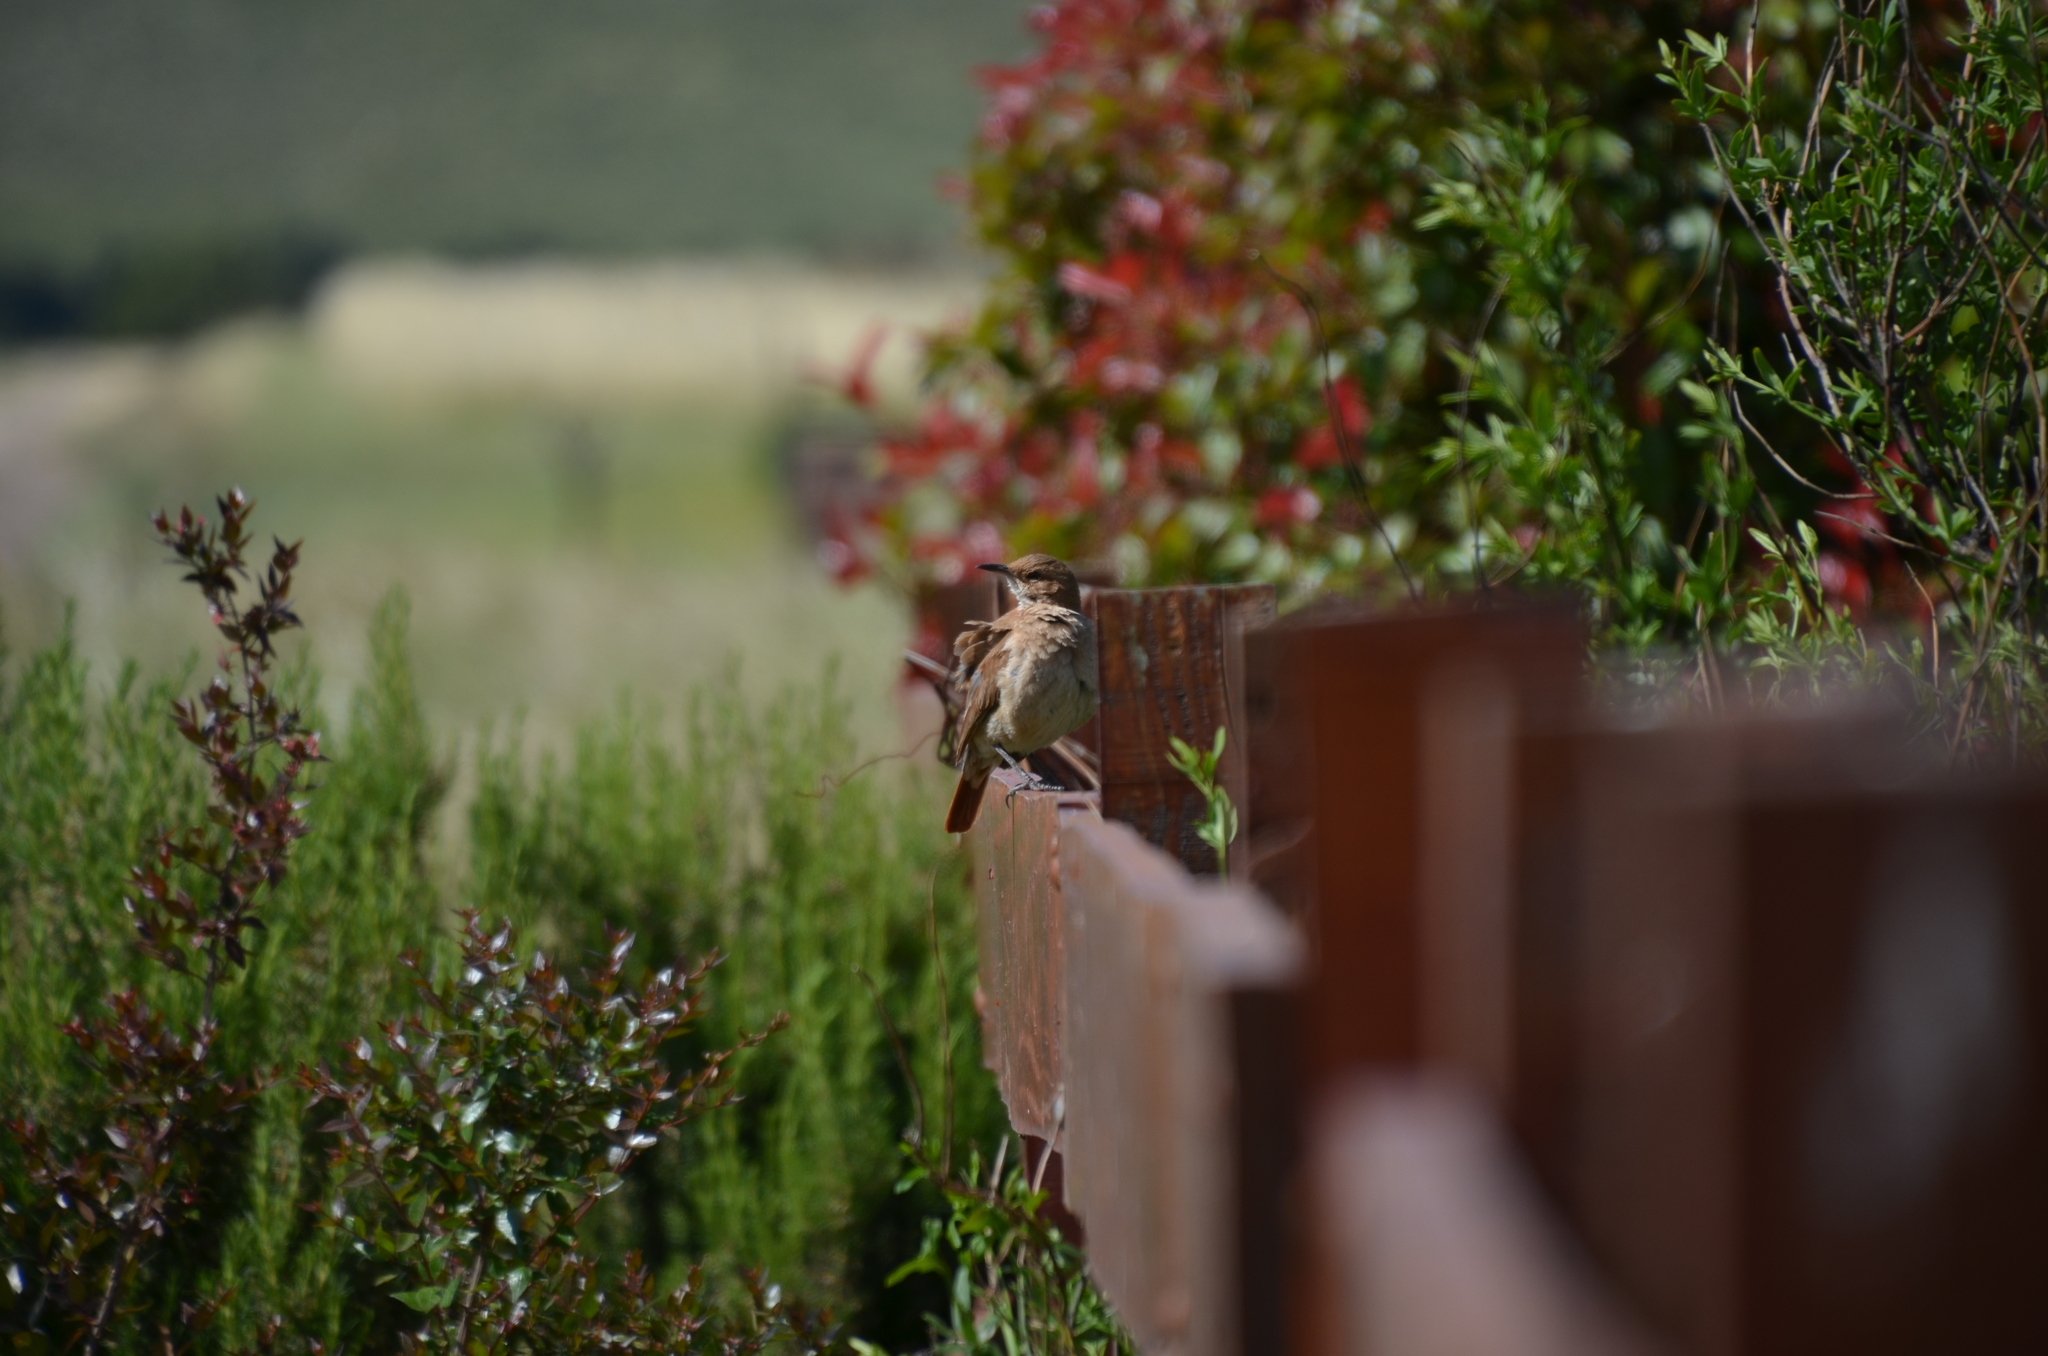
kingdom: Animalia
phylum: Chordata
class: Aves
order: Passeriformes
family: Furnariidae
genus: Furnarius
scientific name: Furnarius rufus
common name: Rufous hornero
